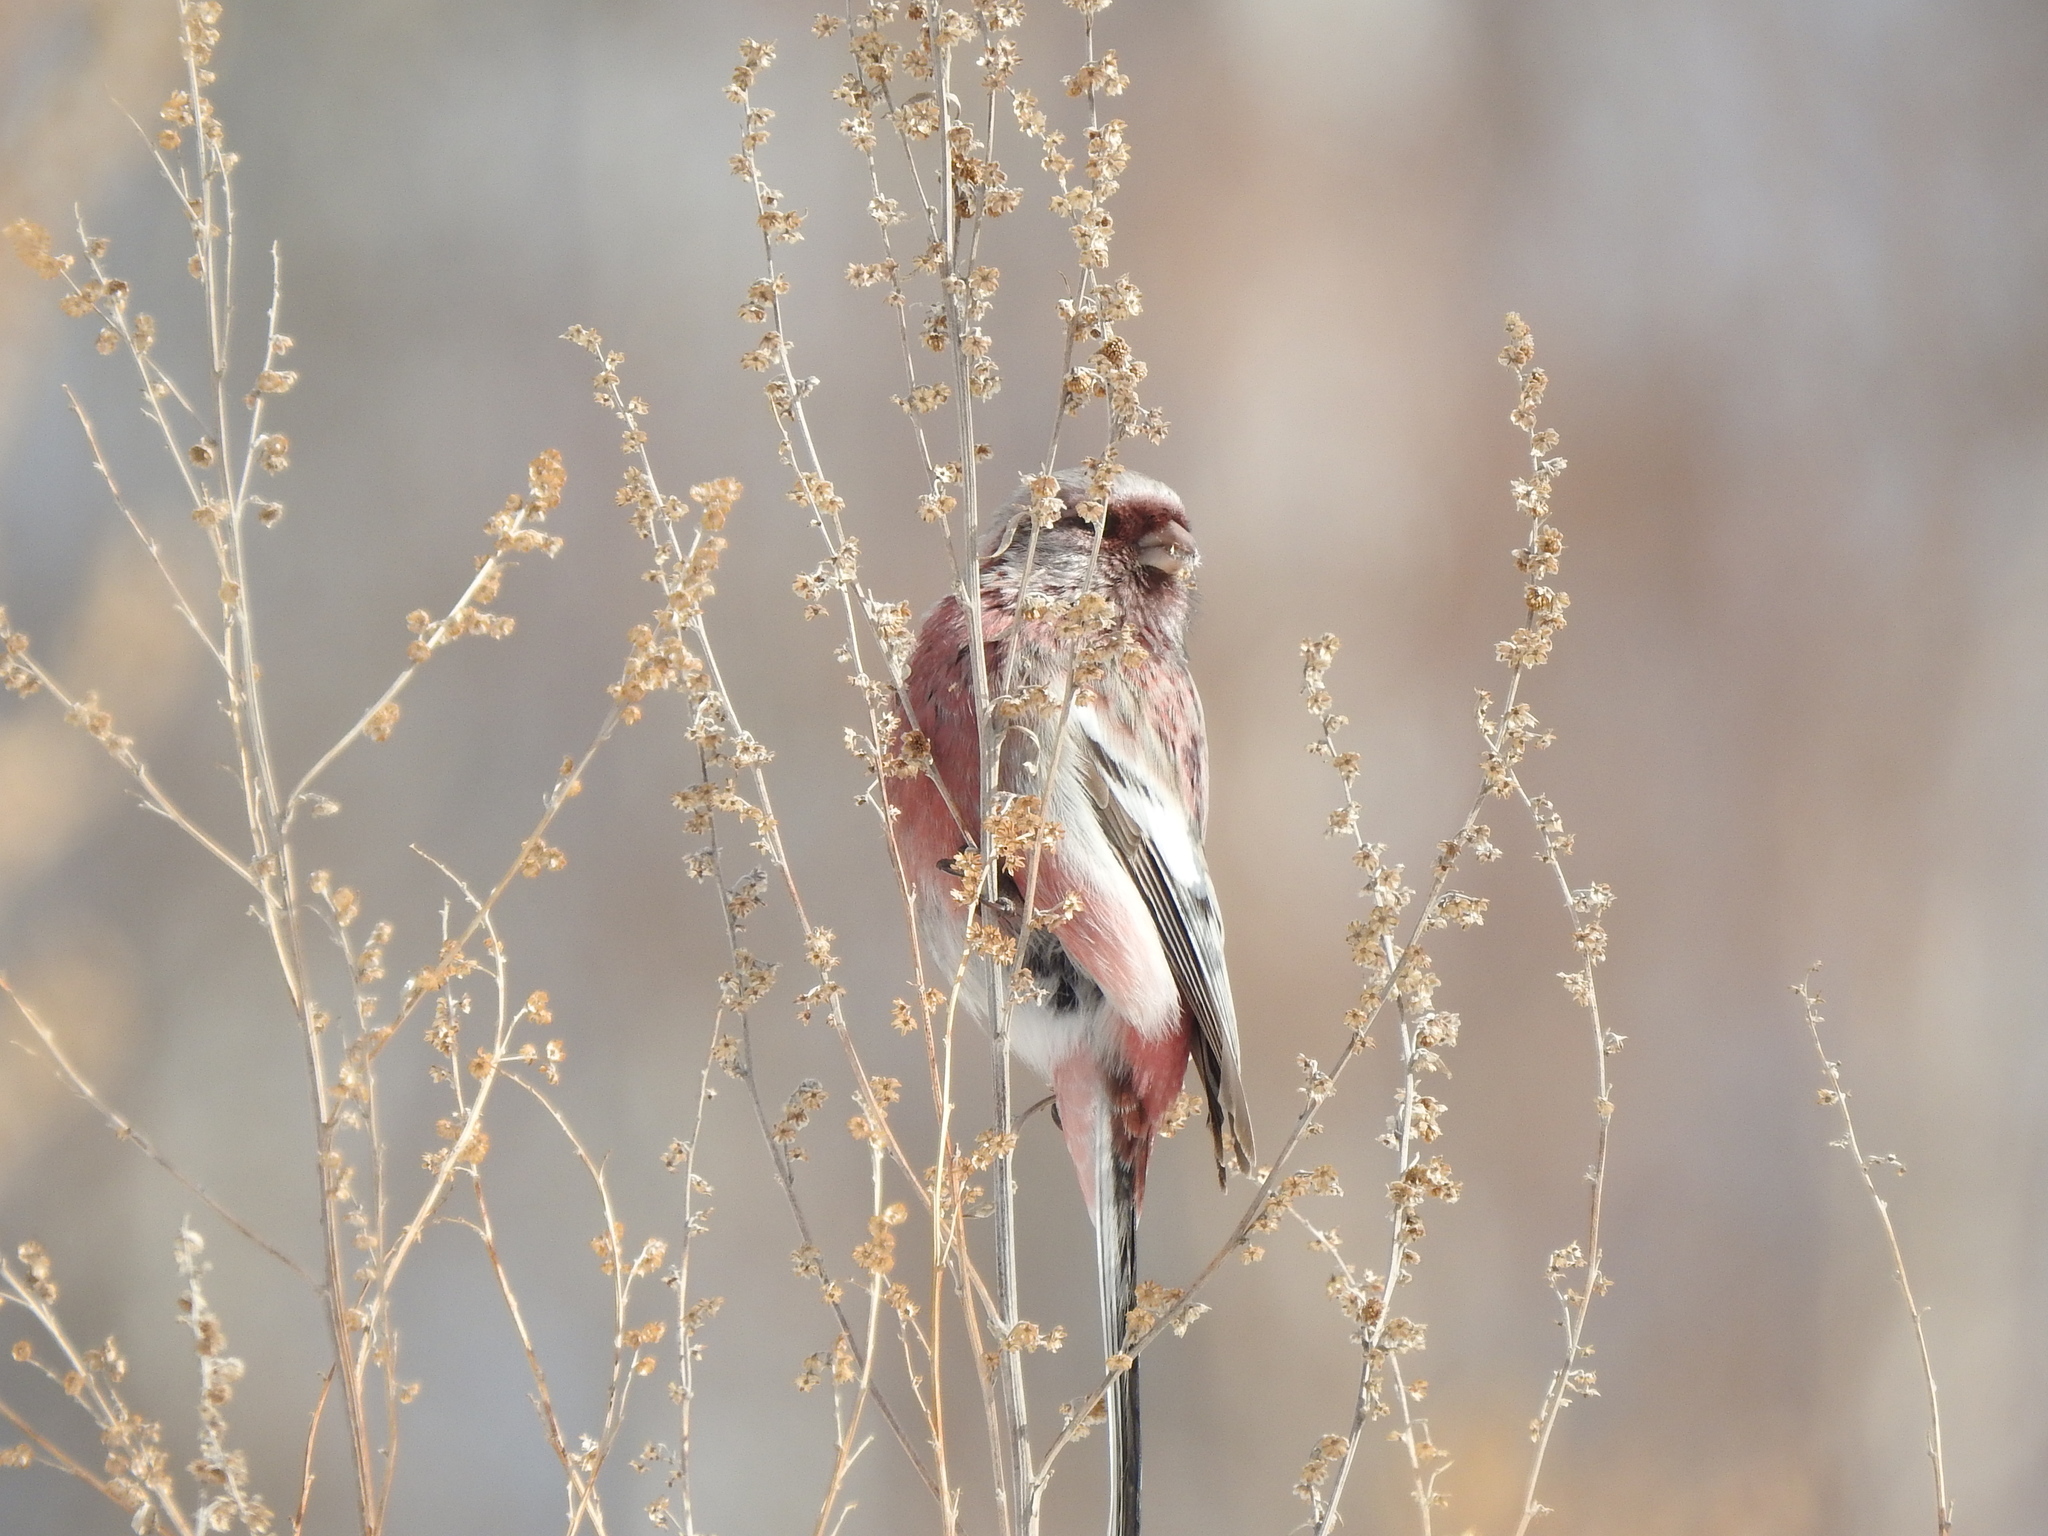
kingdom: Animalia
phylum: Chordata
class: Aves
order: Passeriformes
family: Fringillidae
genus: Carpodacus
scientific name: Carpodacus sibiricus
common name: Long-tailed rosefinch
